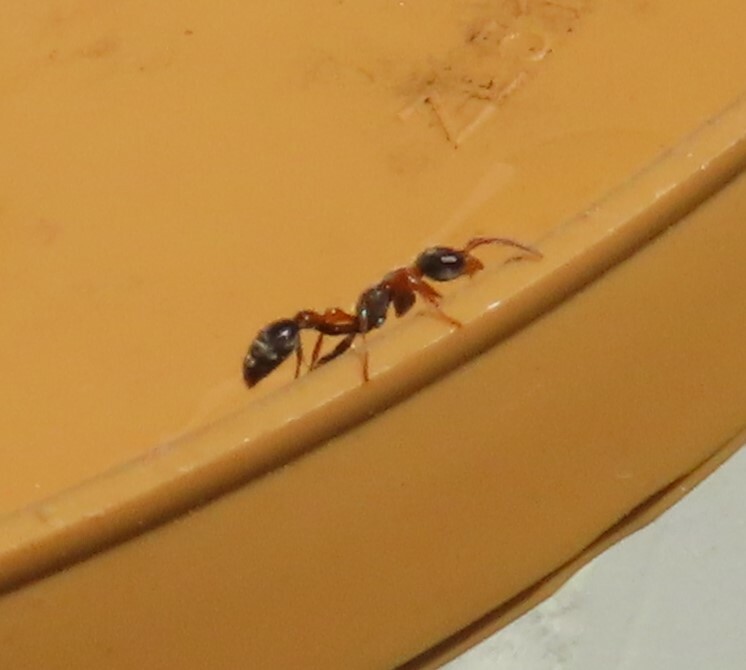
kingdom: Animalia
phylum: Arthropoda
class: Insecta
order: Hymenoptera
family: Formicidae
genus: Pseudomyrmex
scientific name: Pseudomyrmex gracilis
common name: Graceful twig ant
